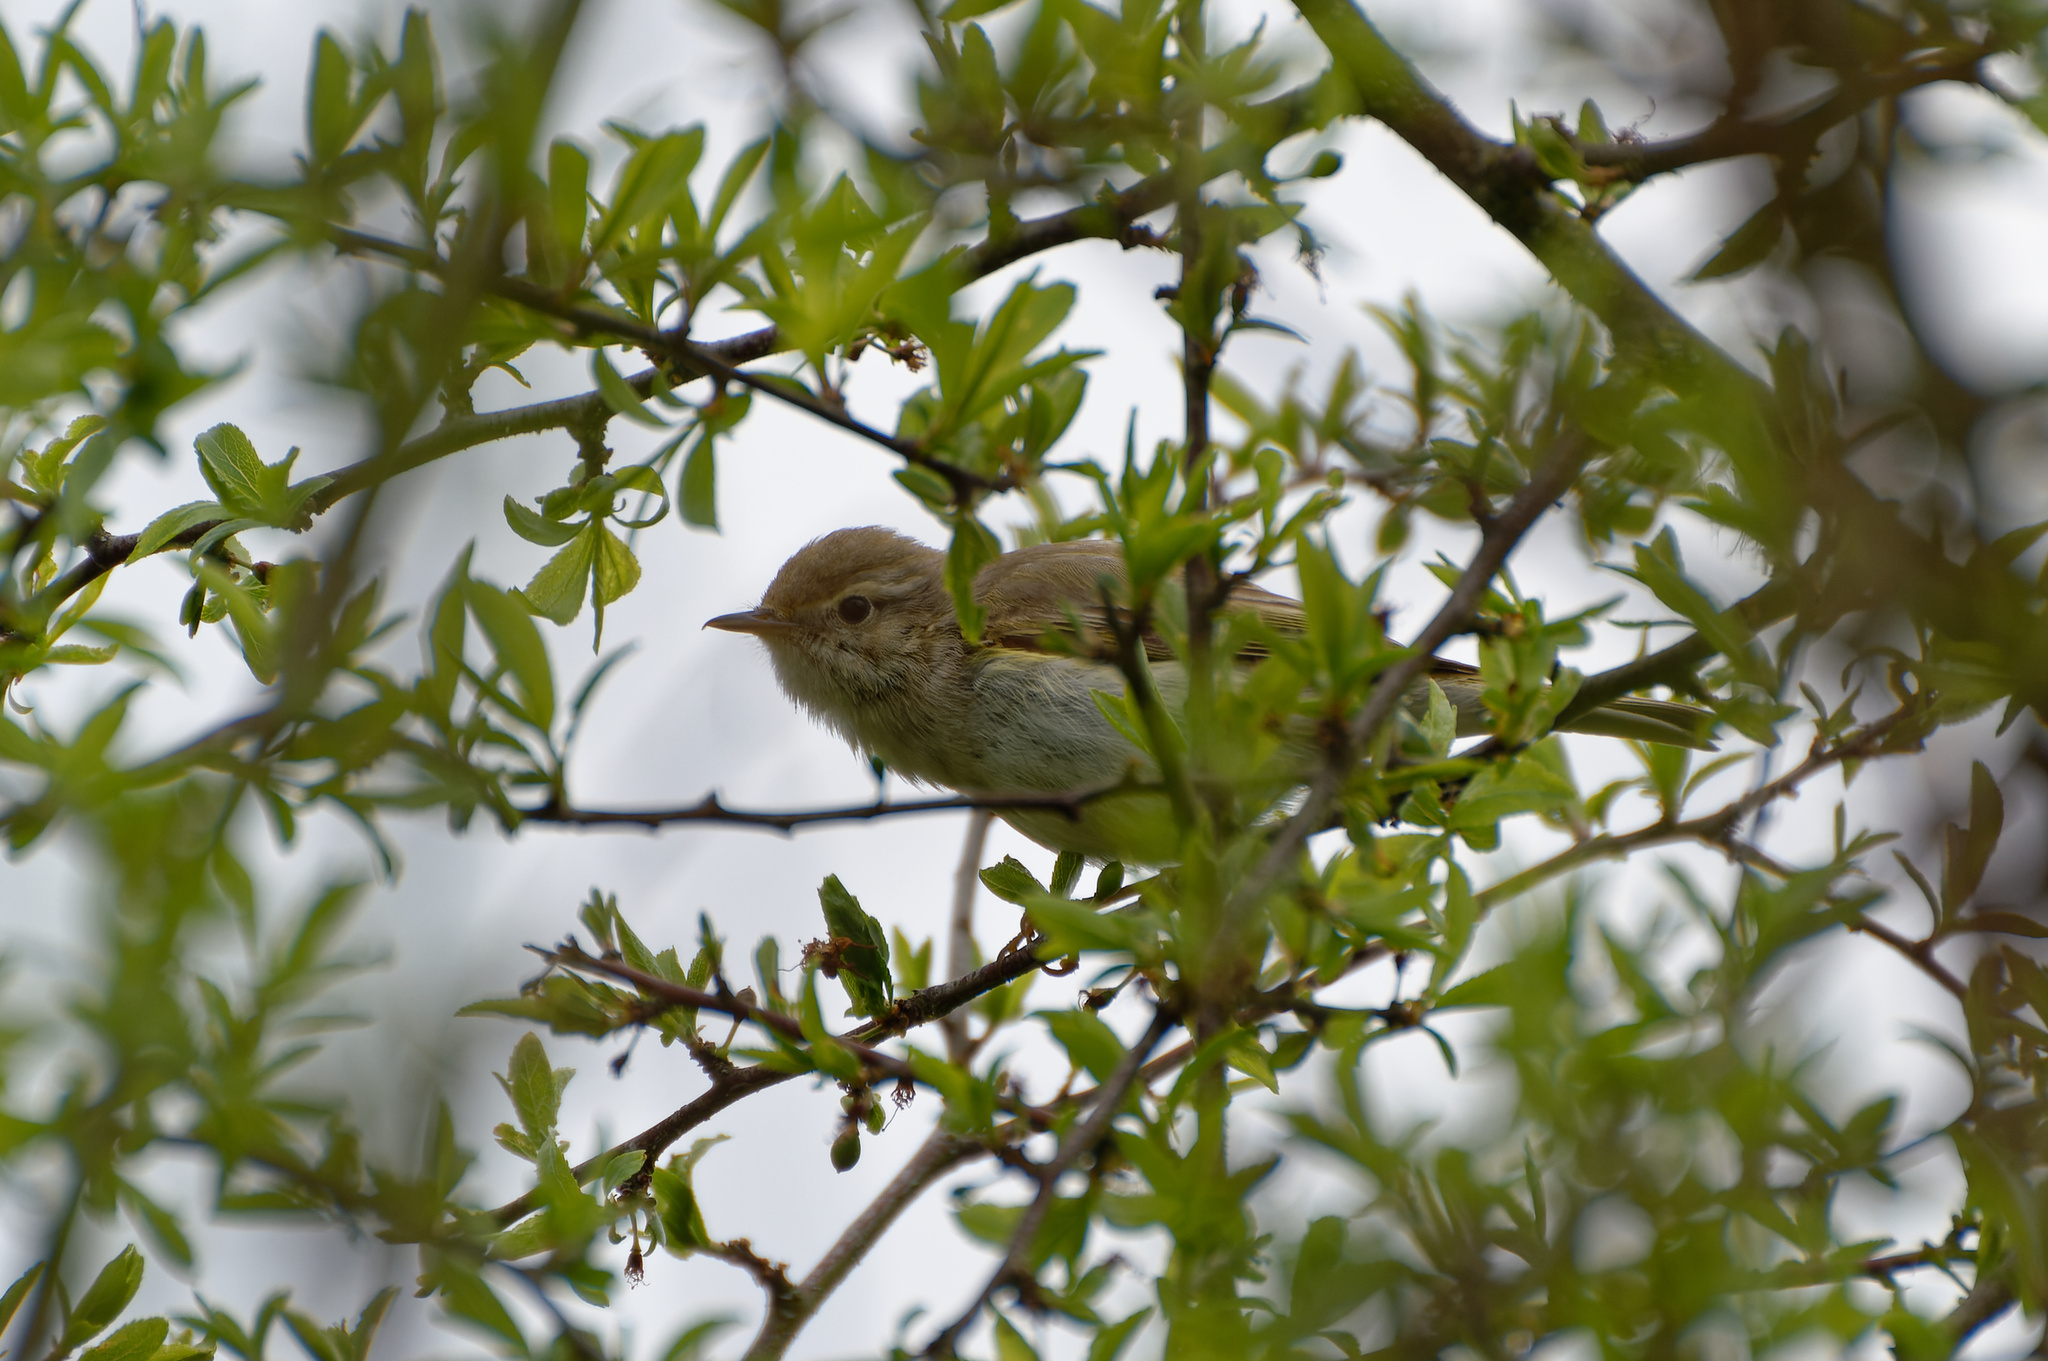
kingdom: Animalia
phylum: Chordata
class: Aves
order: Passeriformes
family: Phylloscopidae
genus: Phylloscopus
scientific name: Phylloscopus bonelli
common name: Western bonelli's warbler
